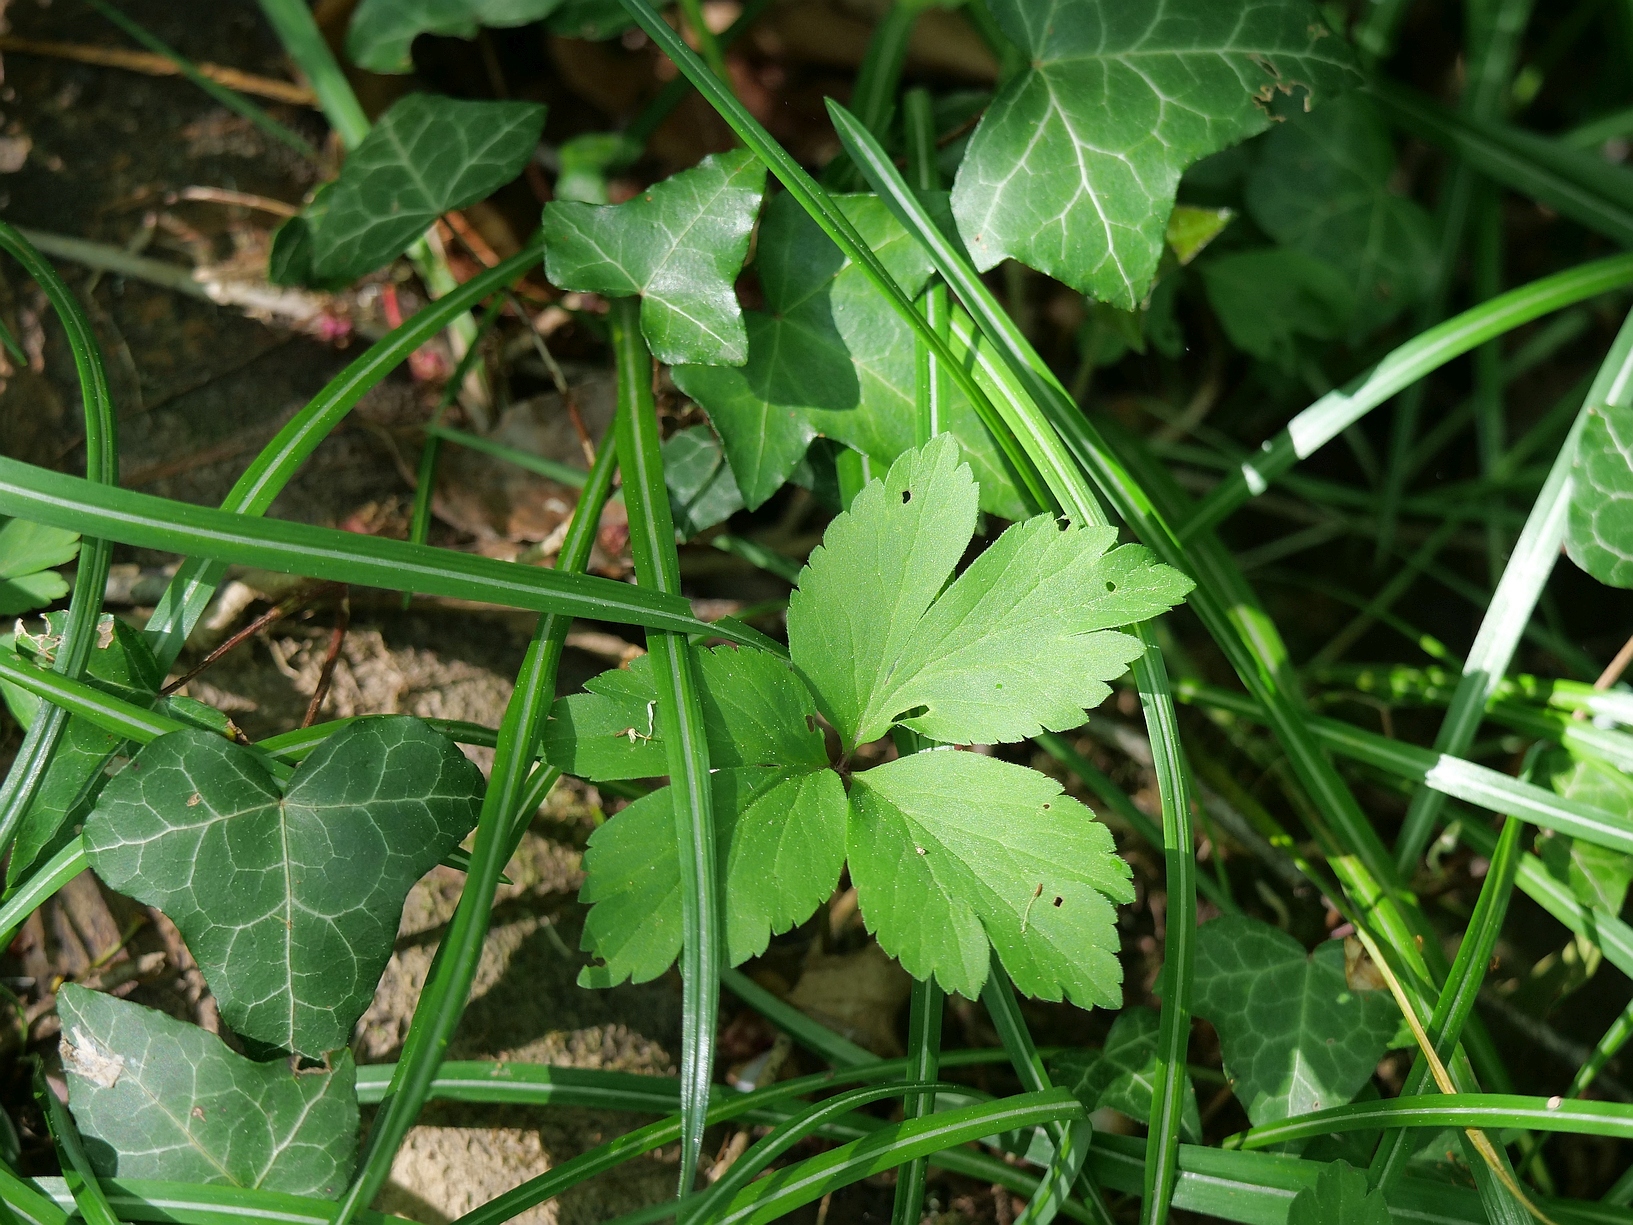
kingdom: Plantae
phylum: Tracheophyta
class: Magnoliopsida
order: Ranunculales
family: Ranunculaceae
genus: Anemone
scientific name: Anemone pittonii
